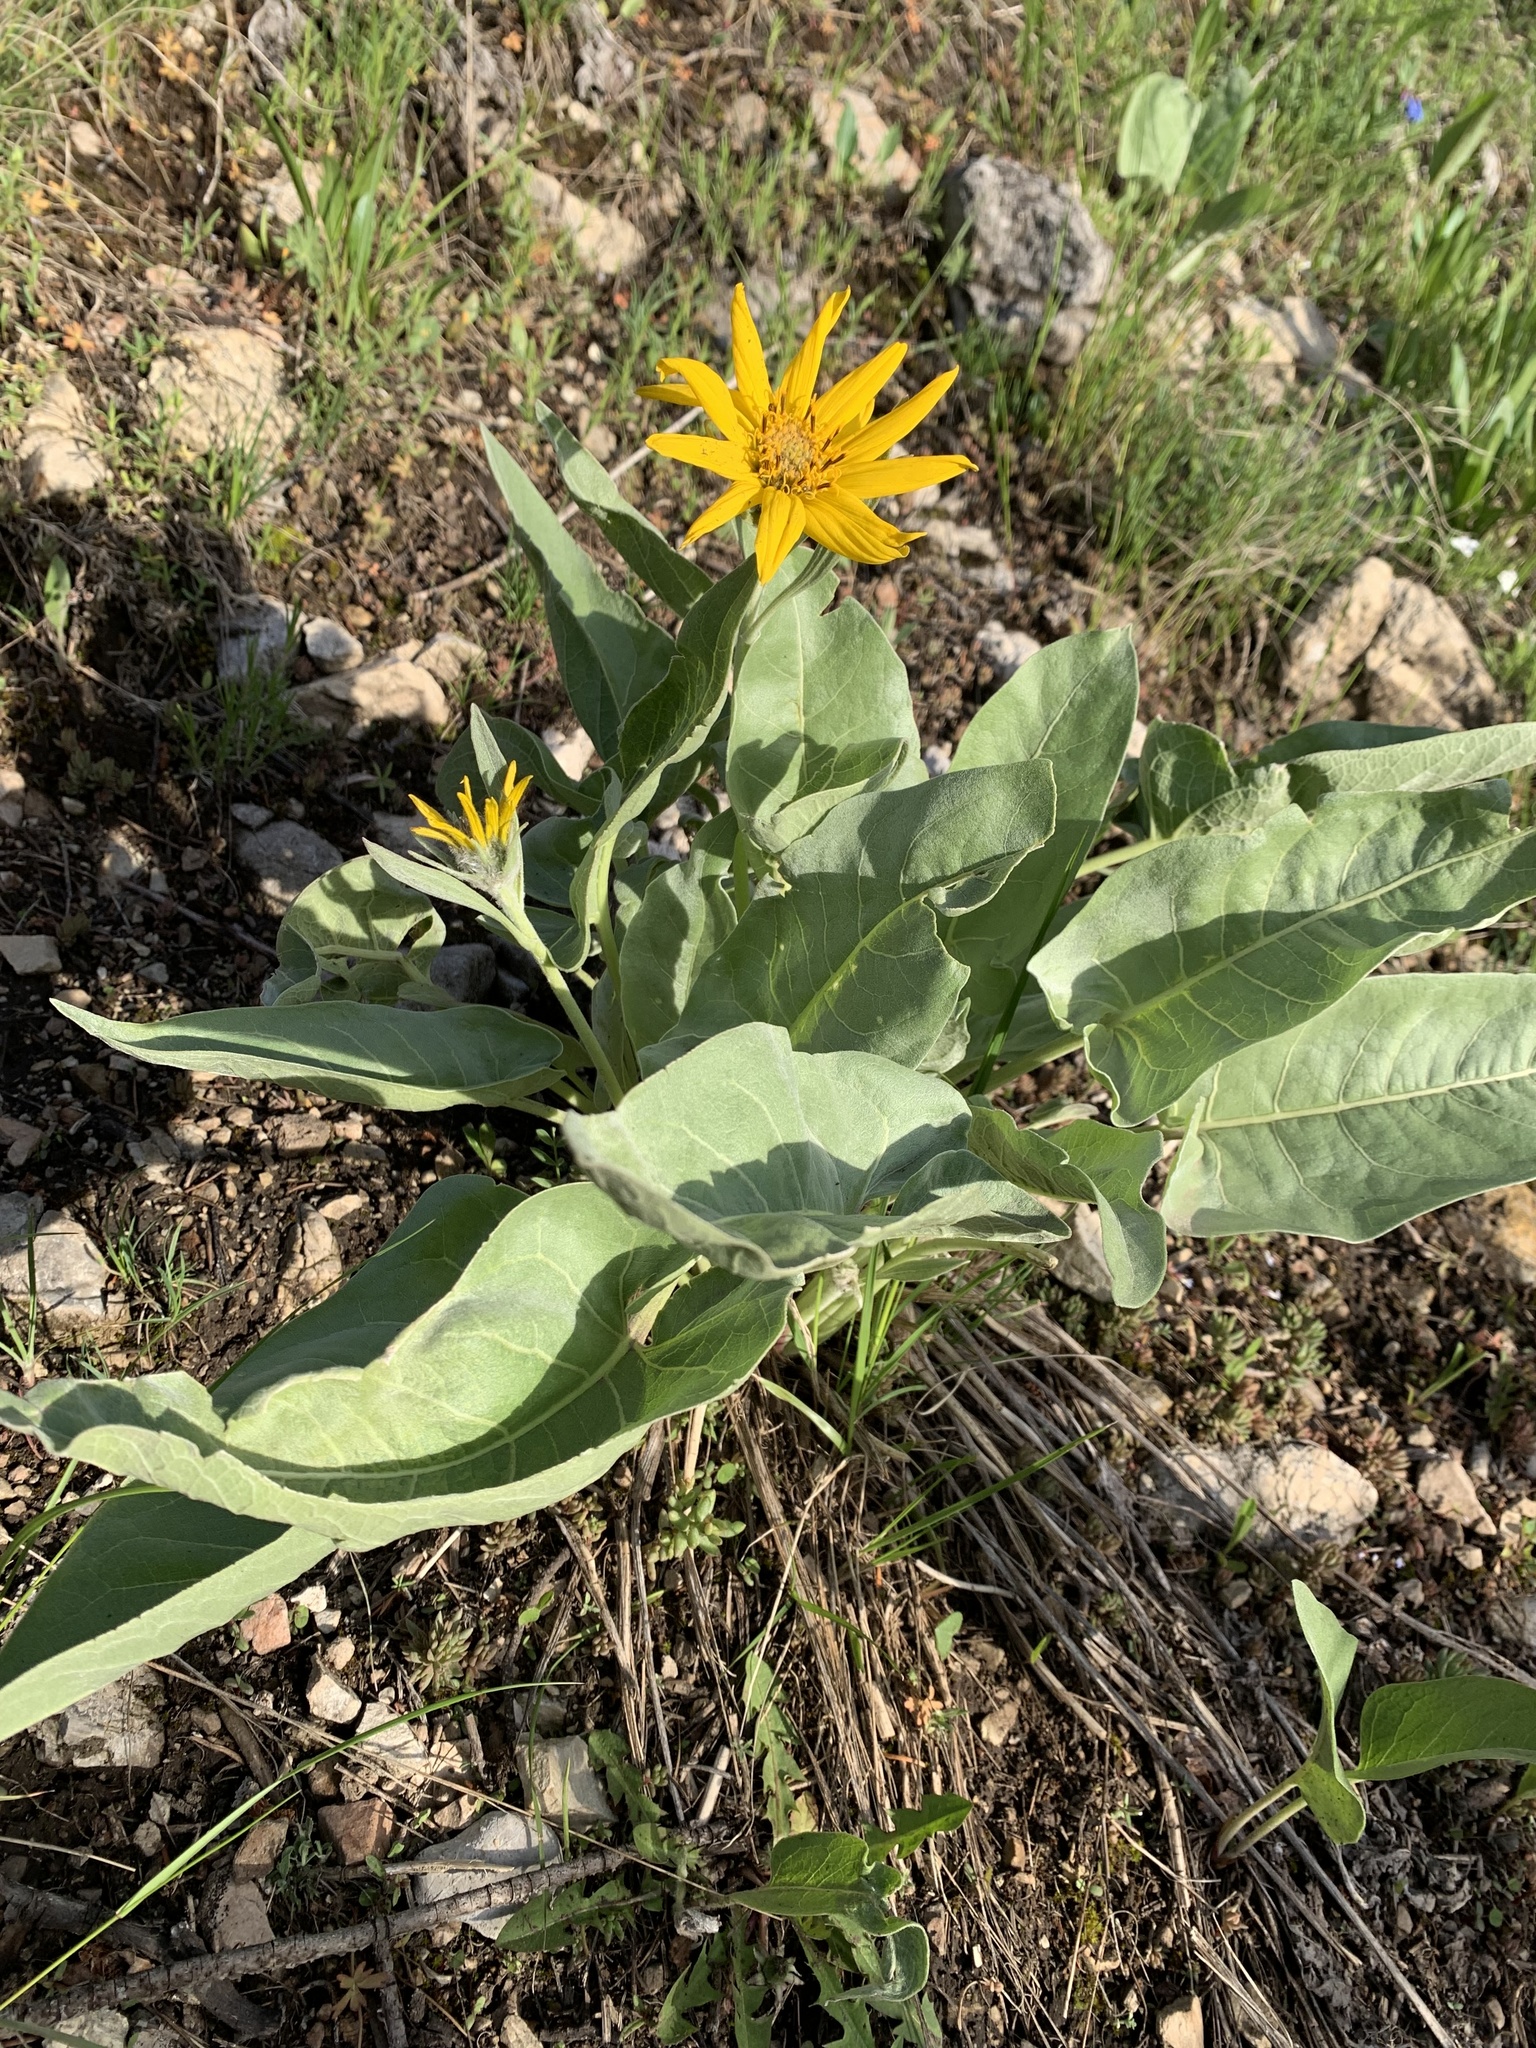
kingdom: Plantae
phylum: Tracheophyta
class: Magnoliopsida
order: Asterales
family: Asteraceae
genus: Wyethia
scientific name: Wyethia sagittata
